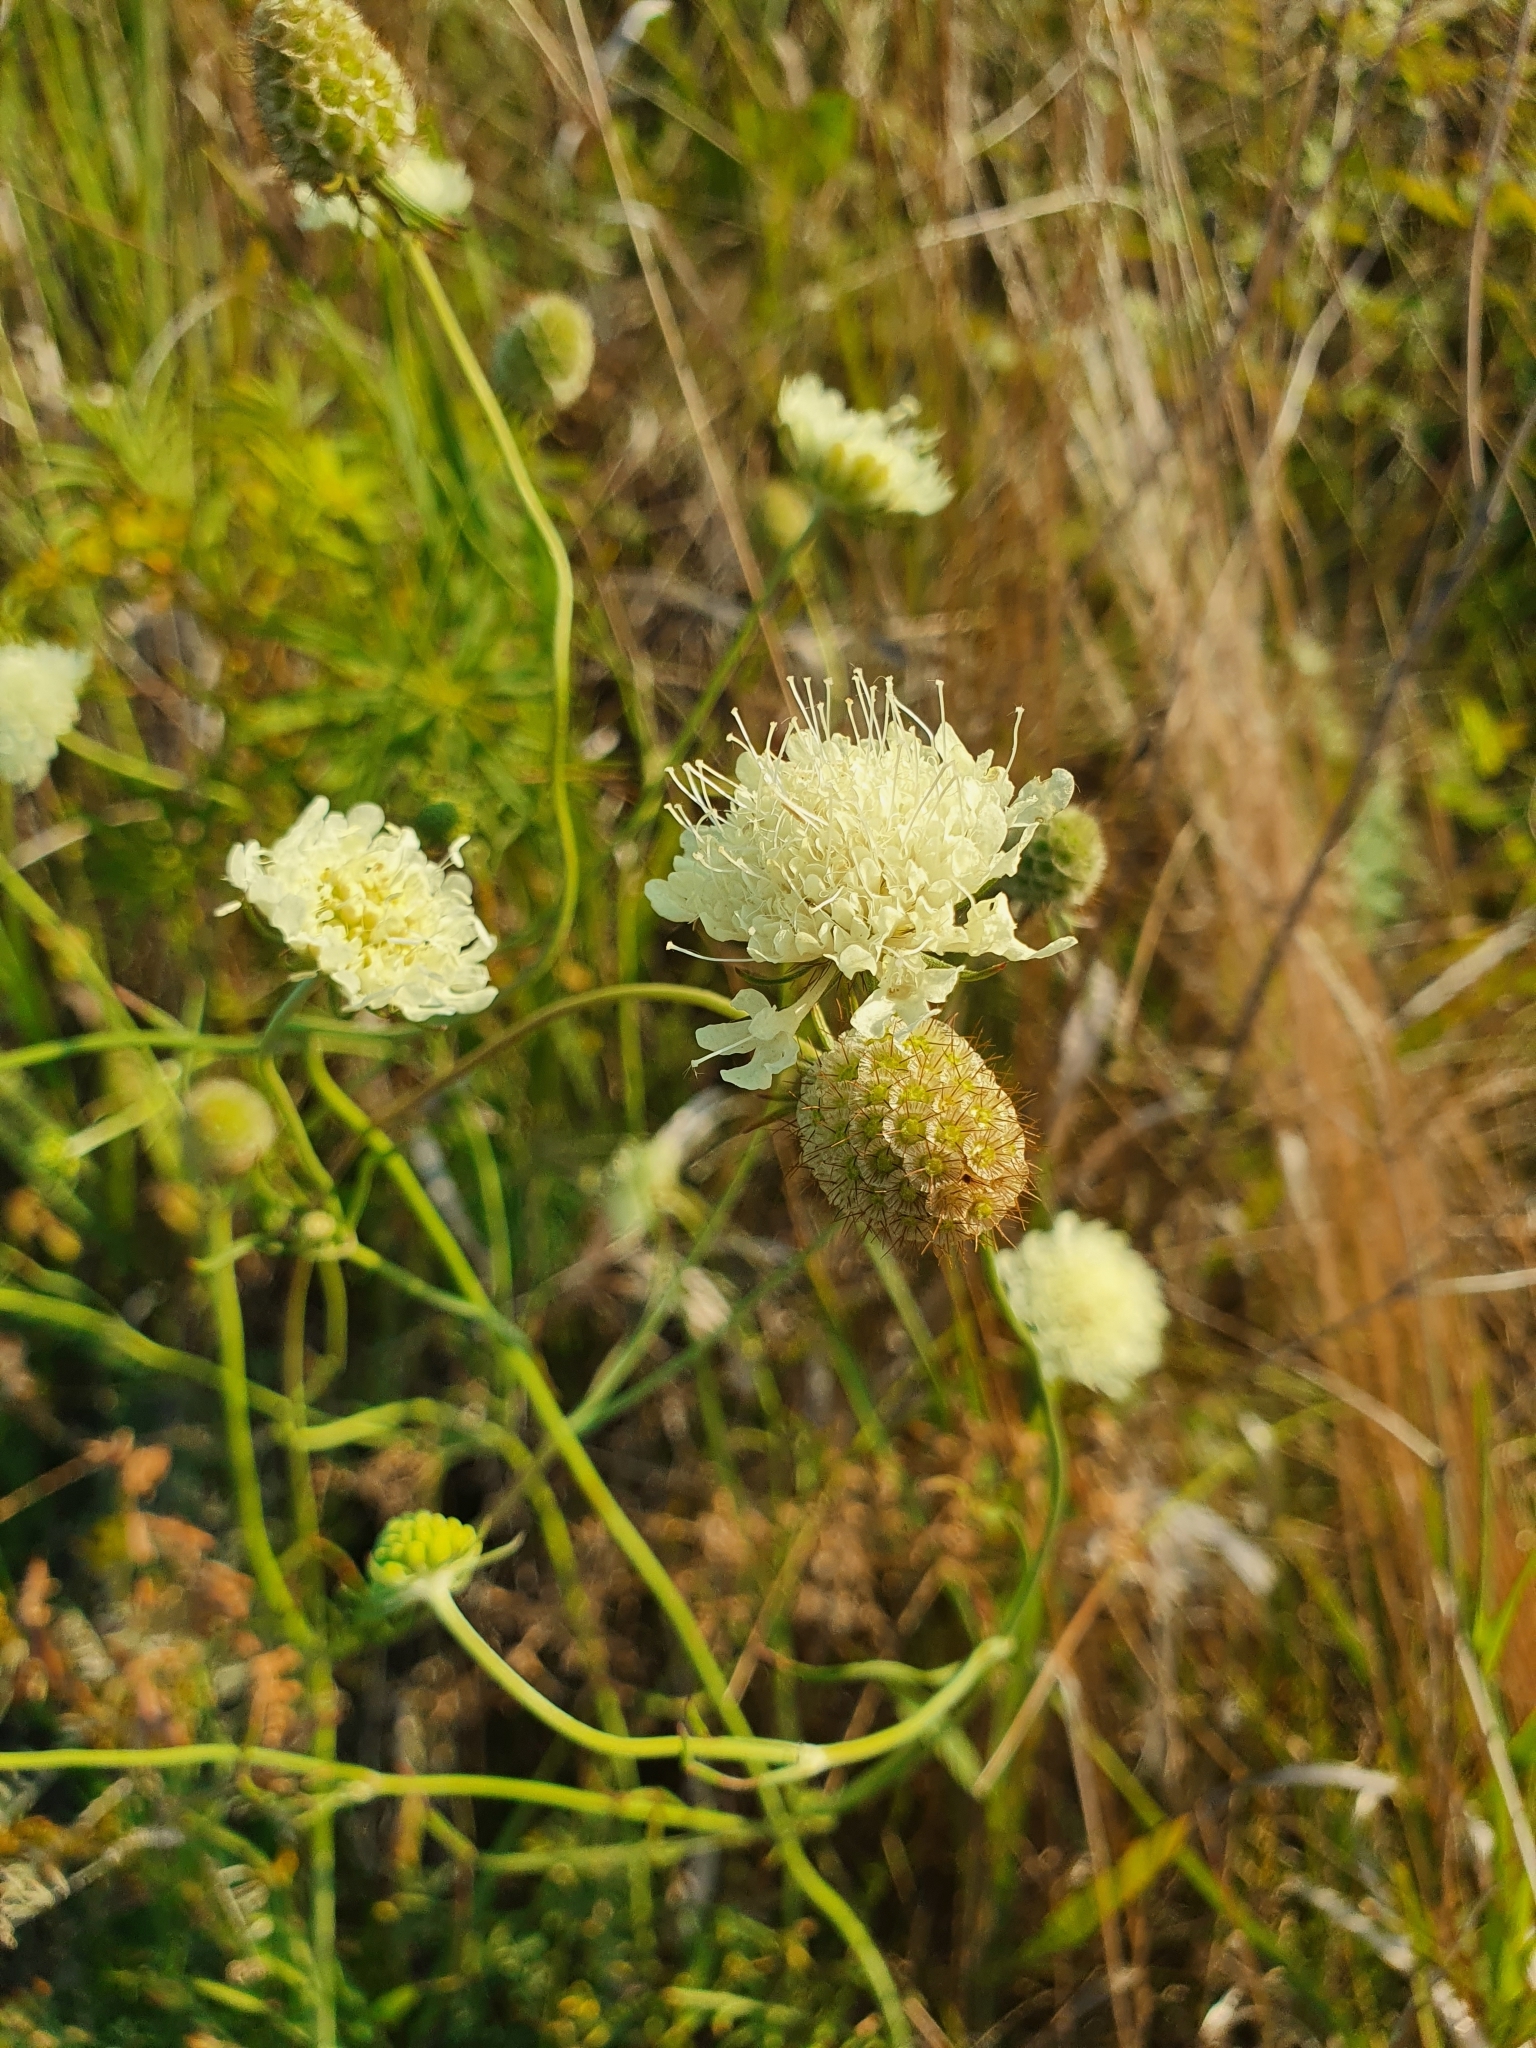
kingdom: Plantae
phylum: Tracheophyta
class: Magnoliopsida
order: Dipsacales
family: Caprifoliaceae
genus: Scabiosa
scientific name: Scabiosa ochroleuca
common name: Cream pincushions
